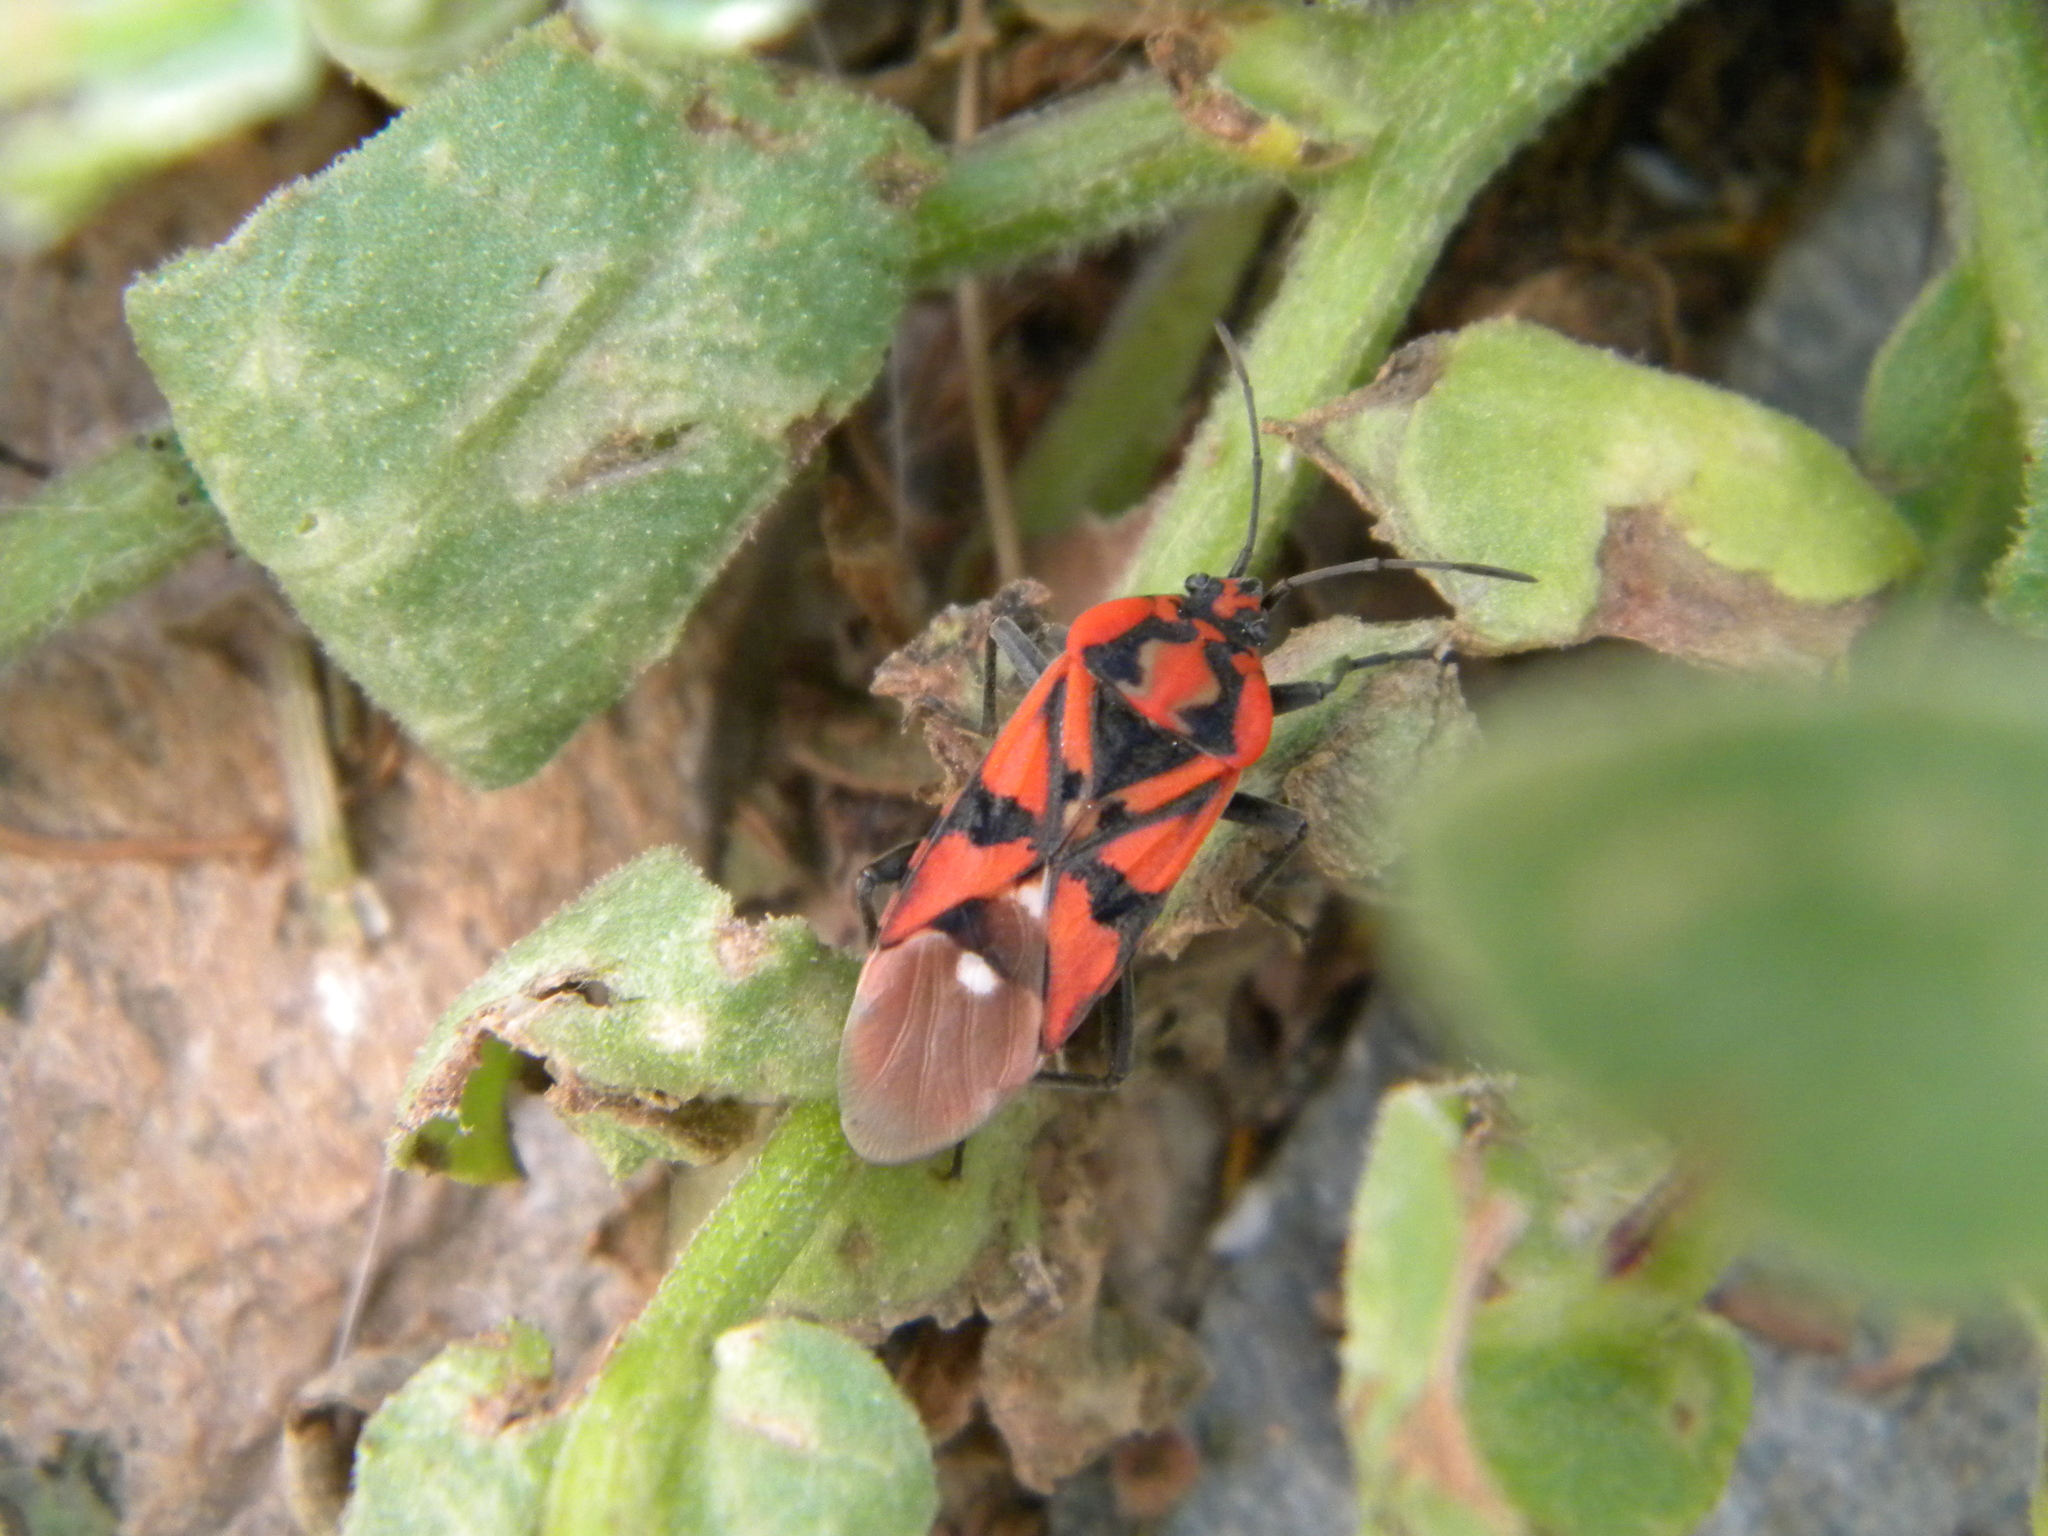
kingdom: Animalia
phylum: Arthropoda
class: Insecta
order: Hemiptera
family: Lygaeidae
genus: Spilostethus
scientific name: Spilostethus pandurus
